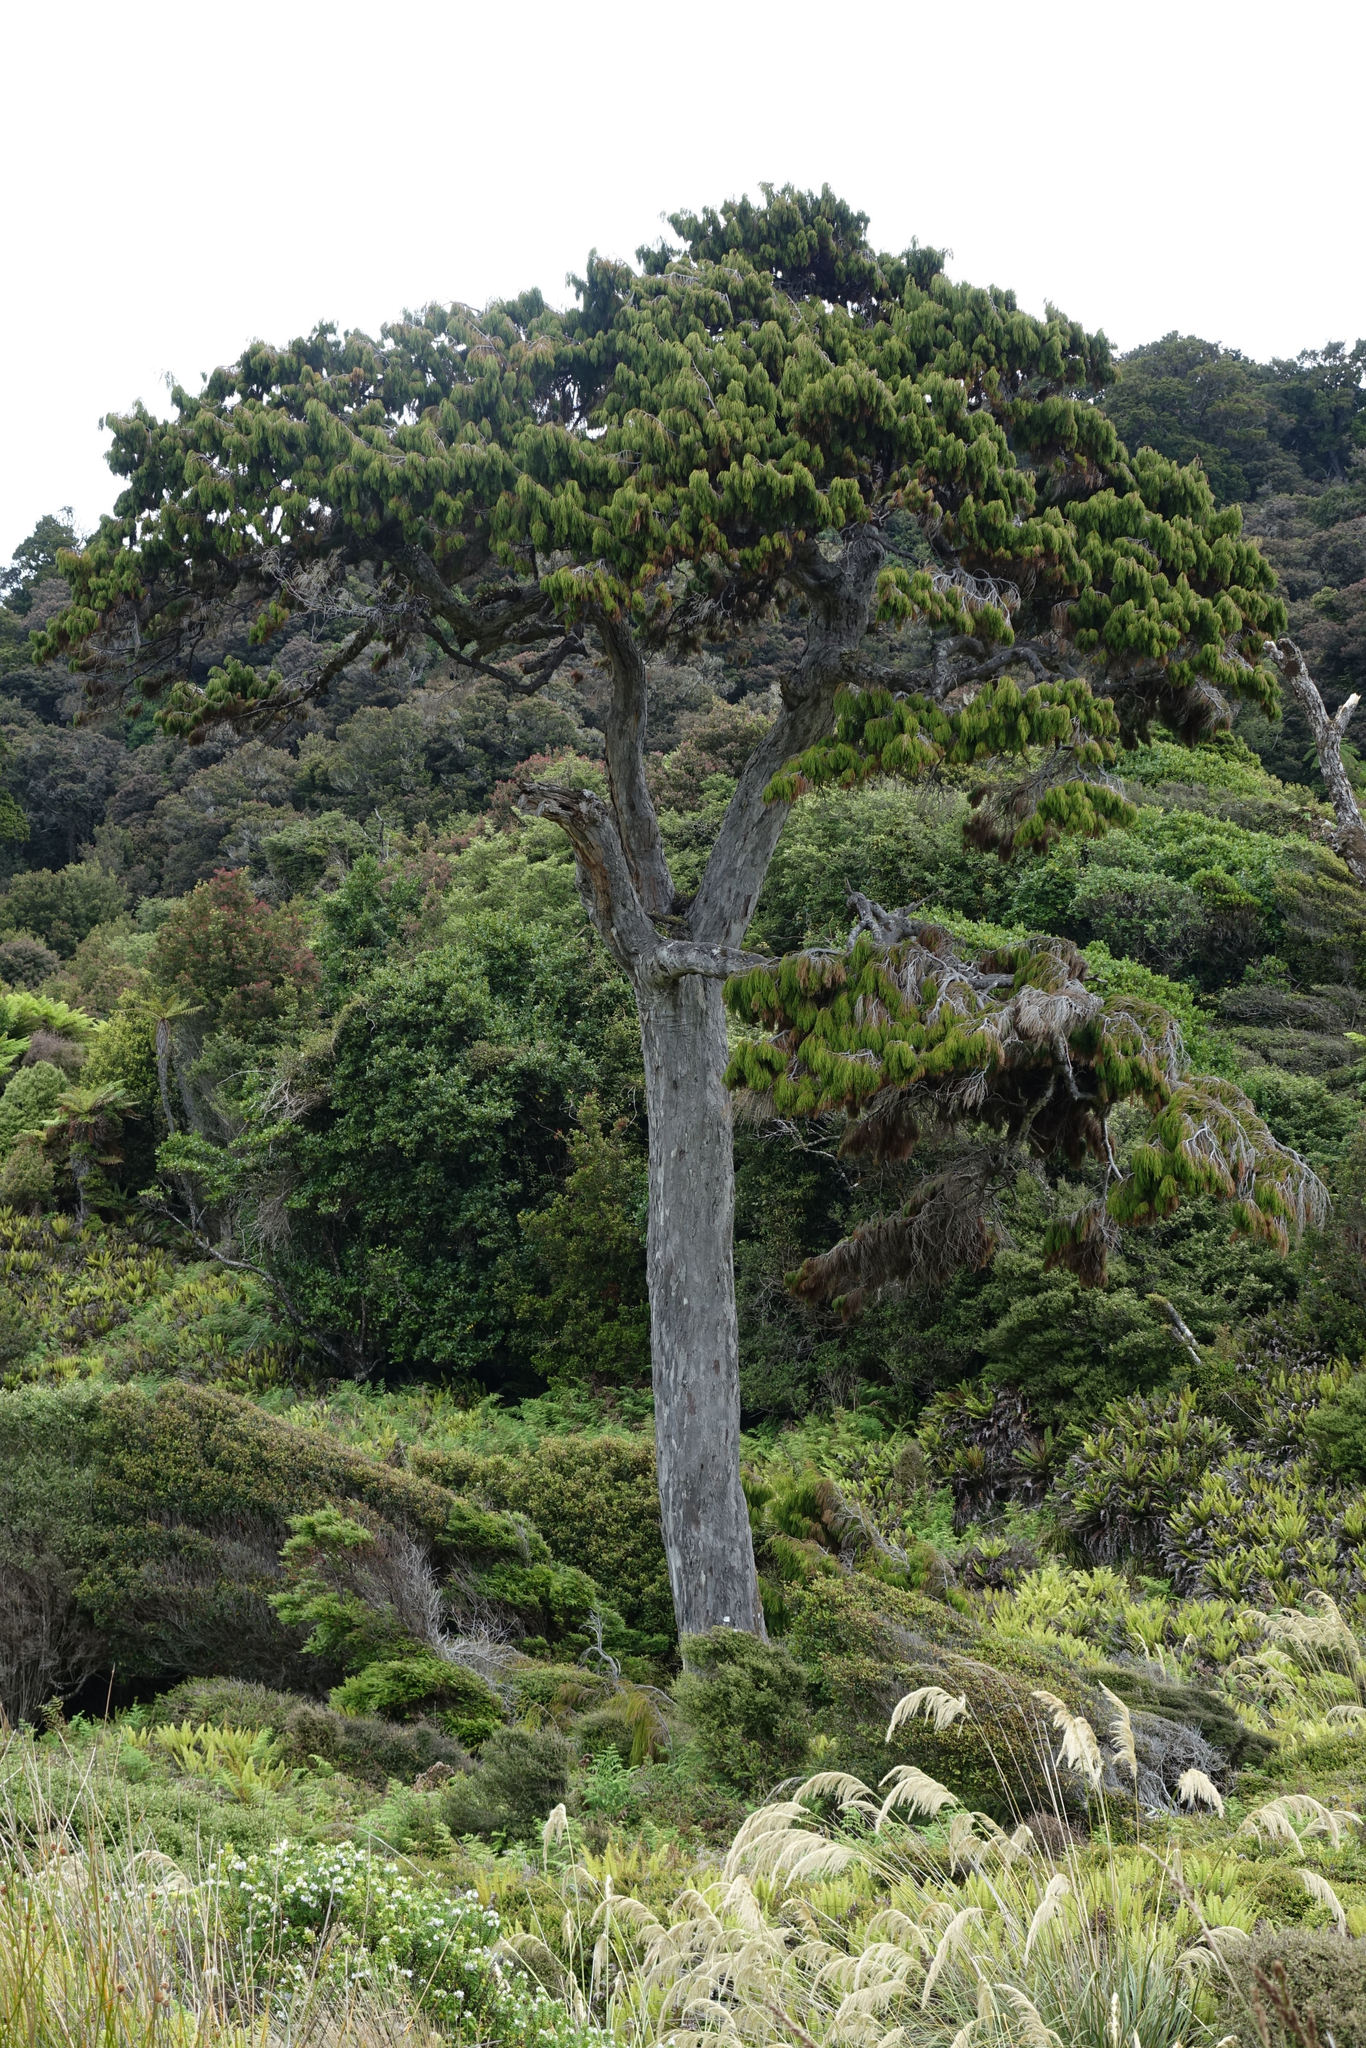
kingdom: Plantae
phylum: Tracheophyta
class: Pinopsida
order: Pinales
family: Podocarpaceae
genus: Dacrydium
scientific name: Dacrydium cupressinum
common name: Red pine
